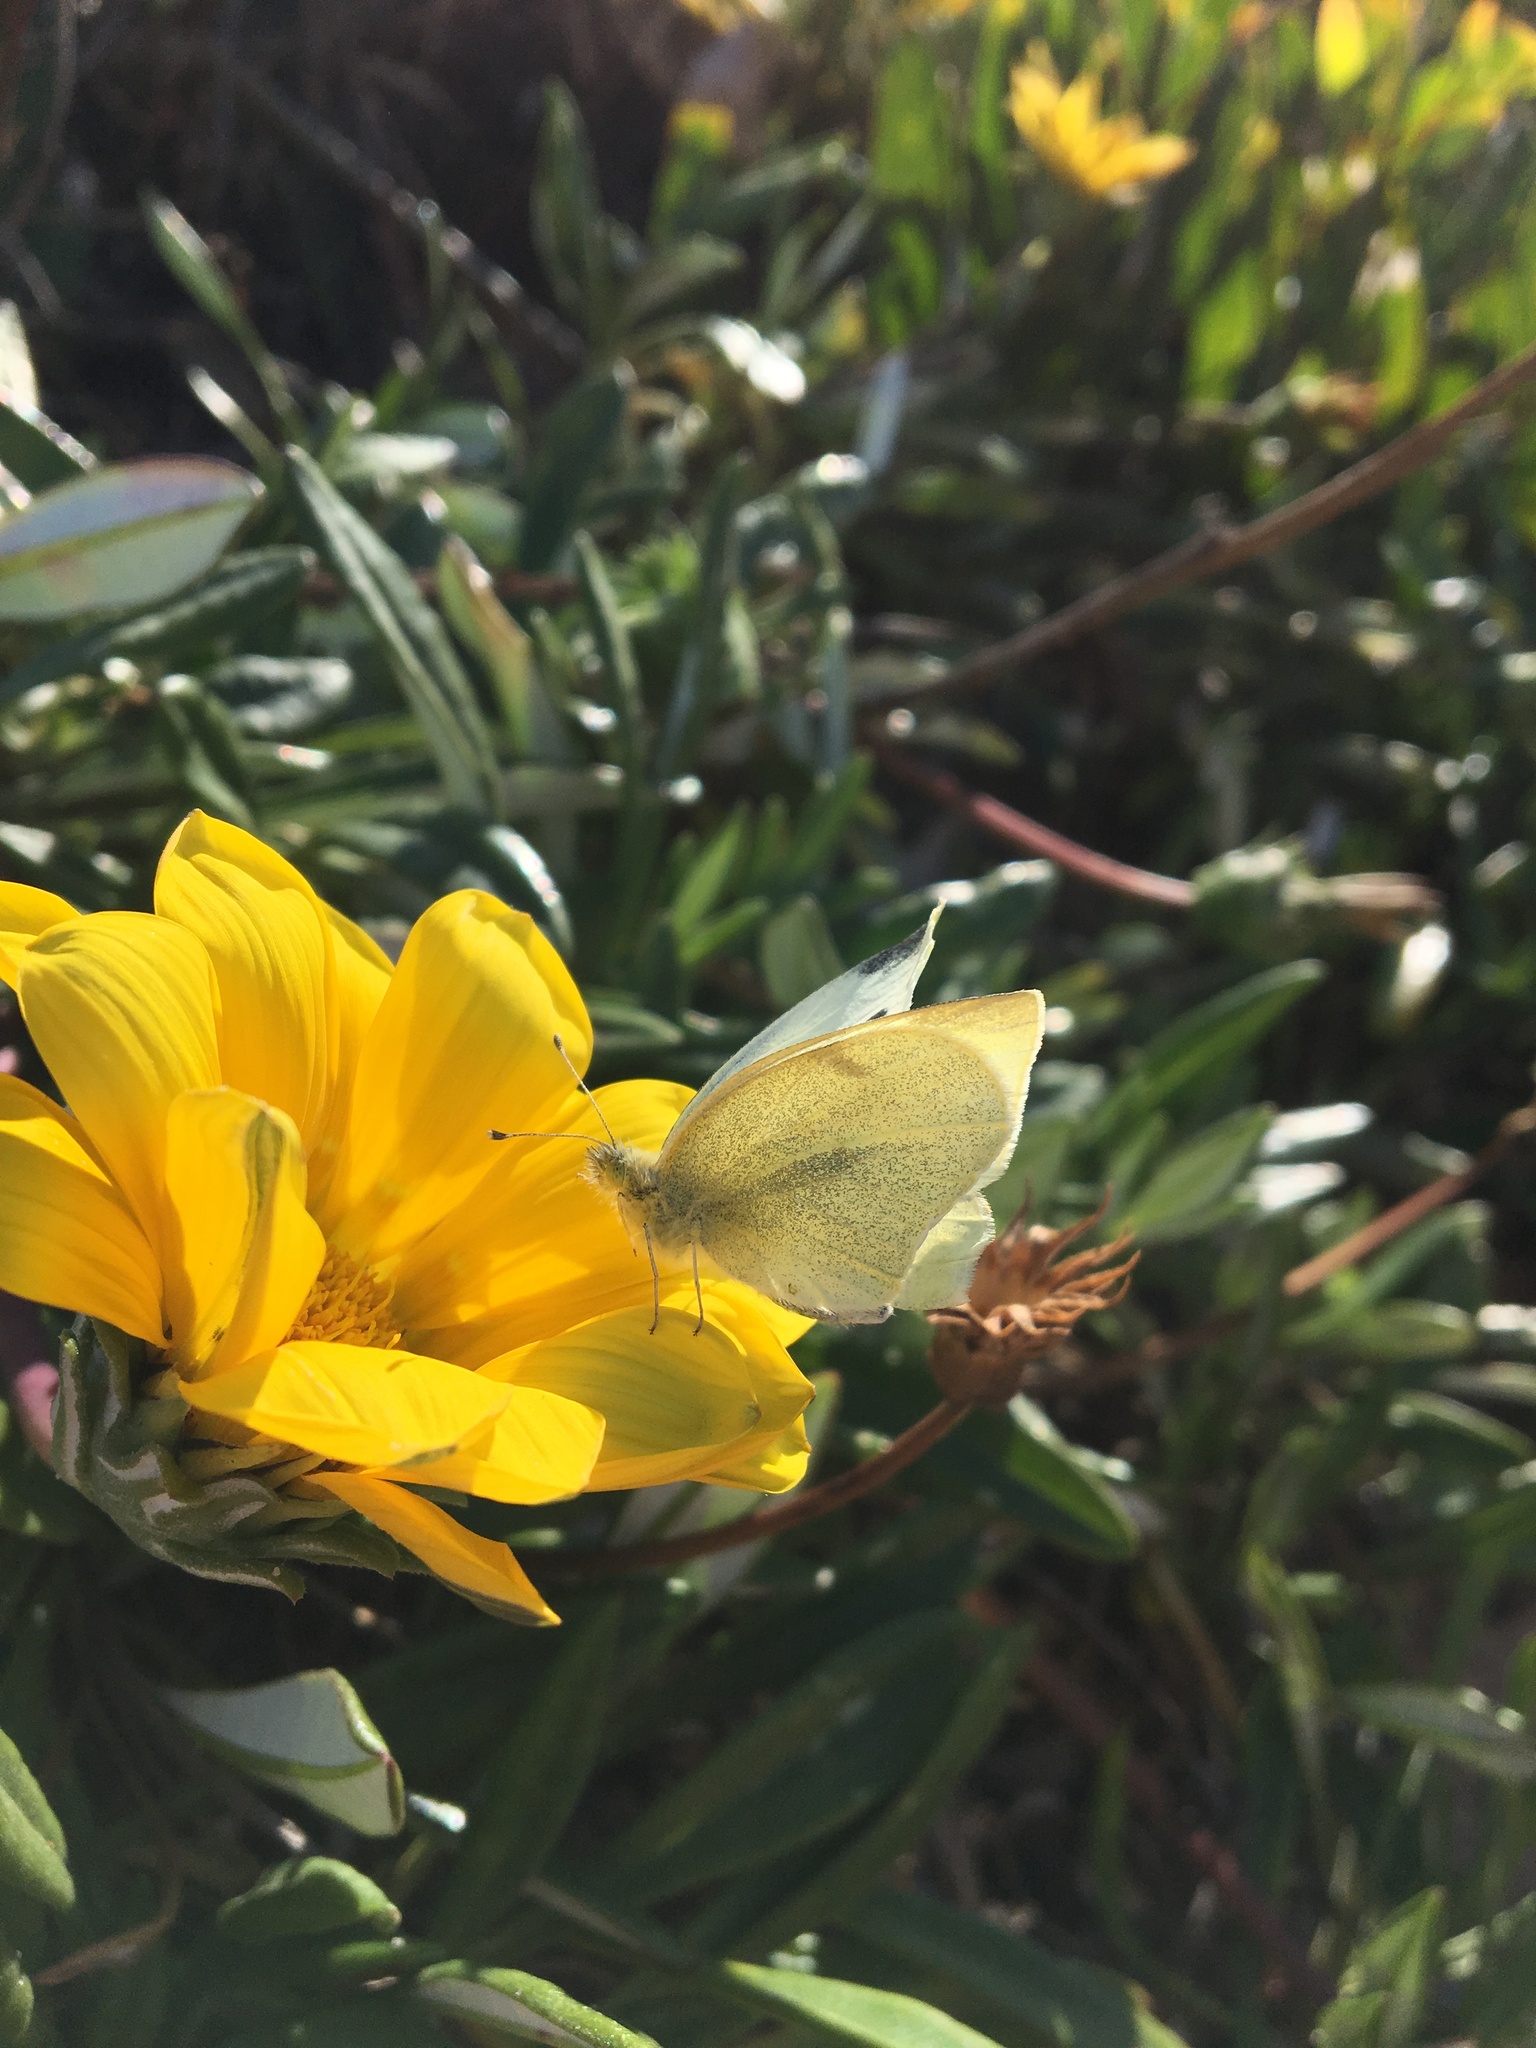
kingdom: Animalia
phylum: Arthropoda
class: Insecta
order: Lepidoptera
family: Pieridae
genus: Pieris
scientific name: Pieris rapae
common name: Small white
